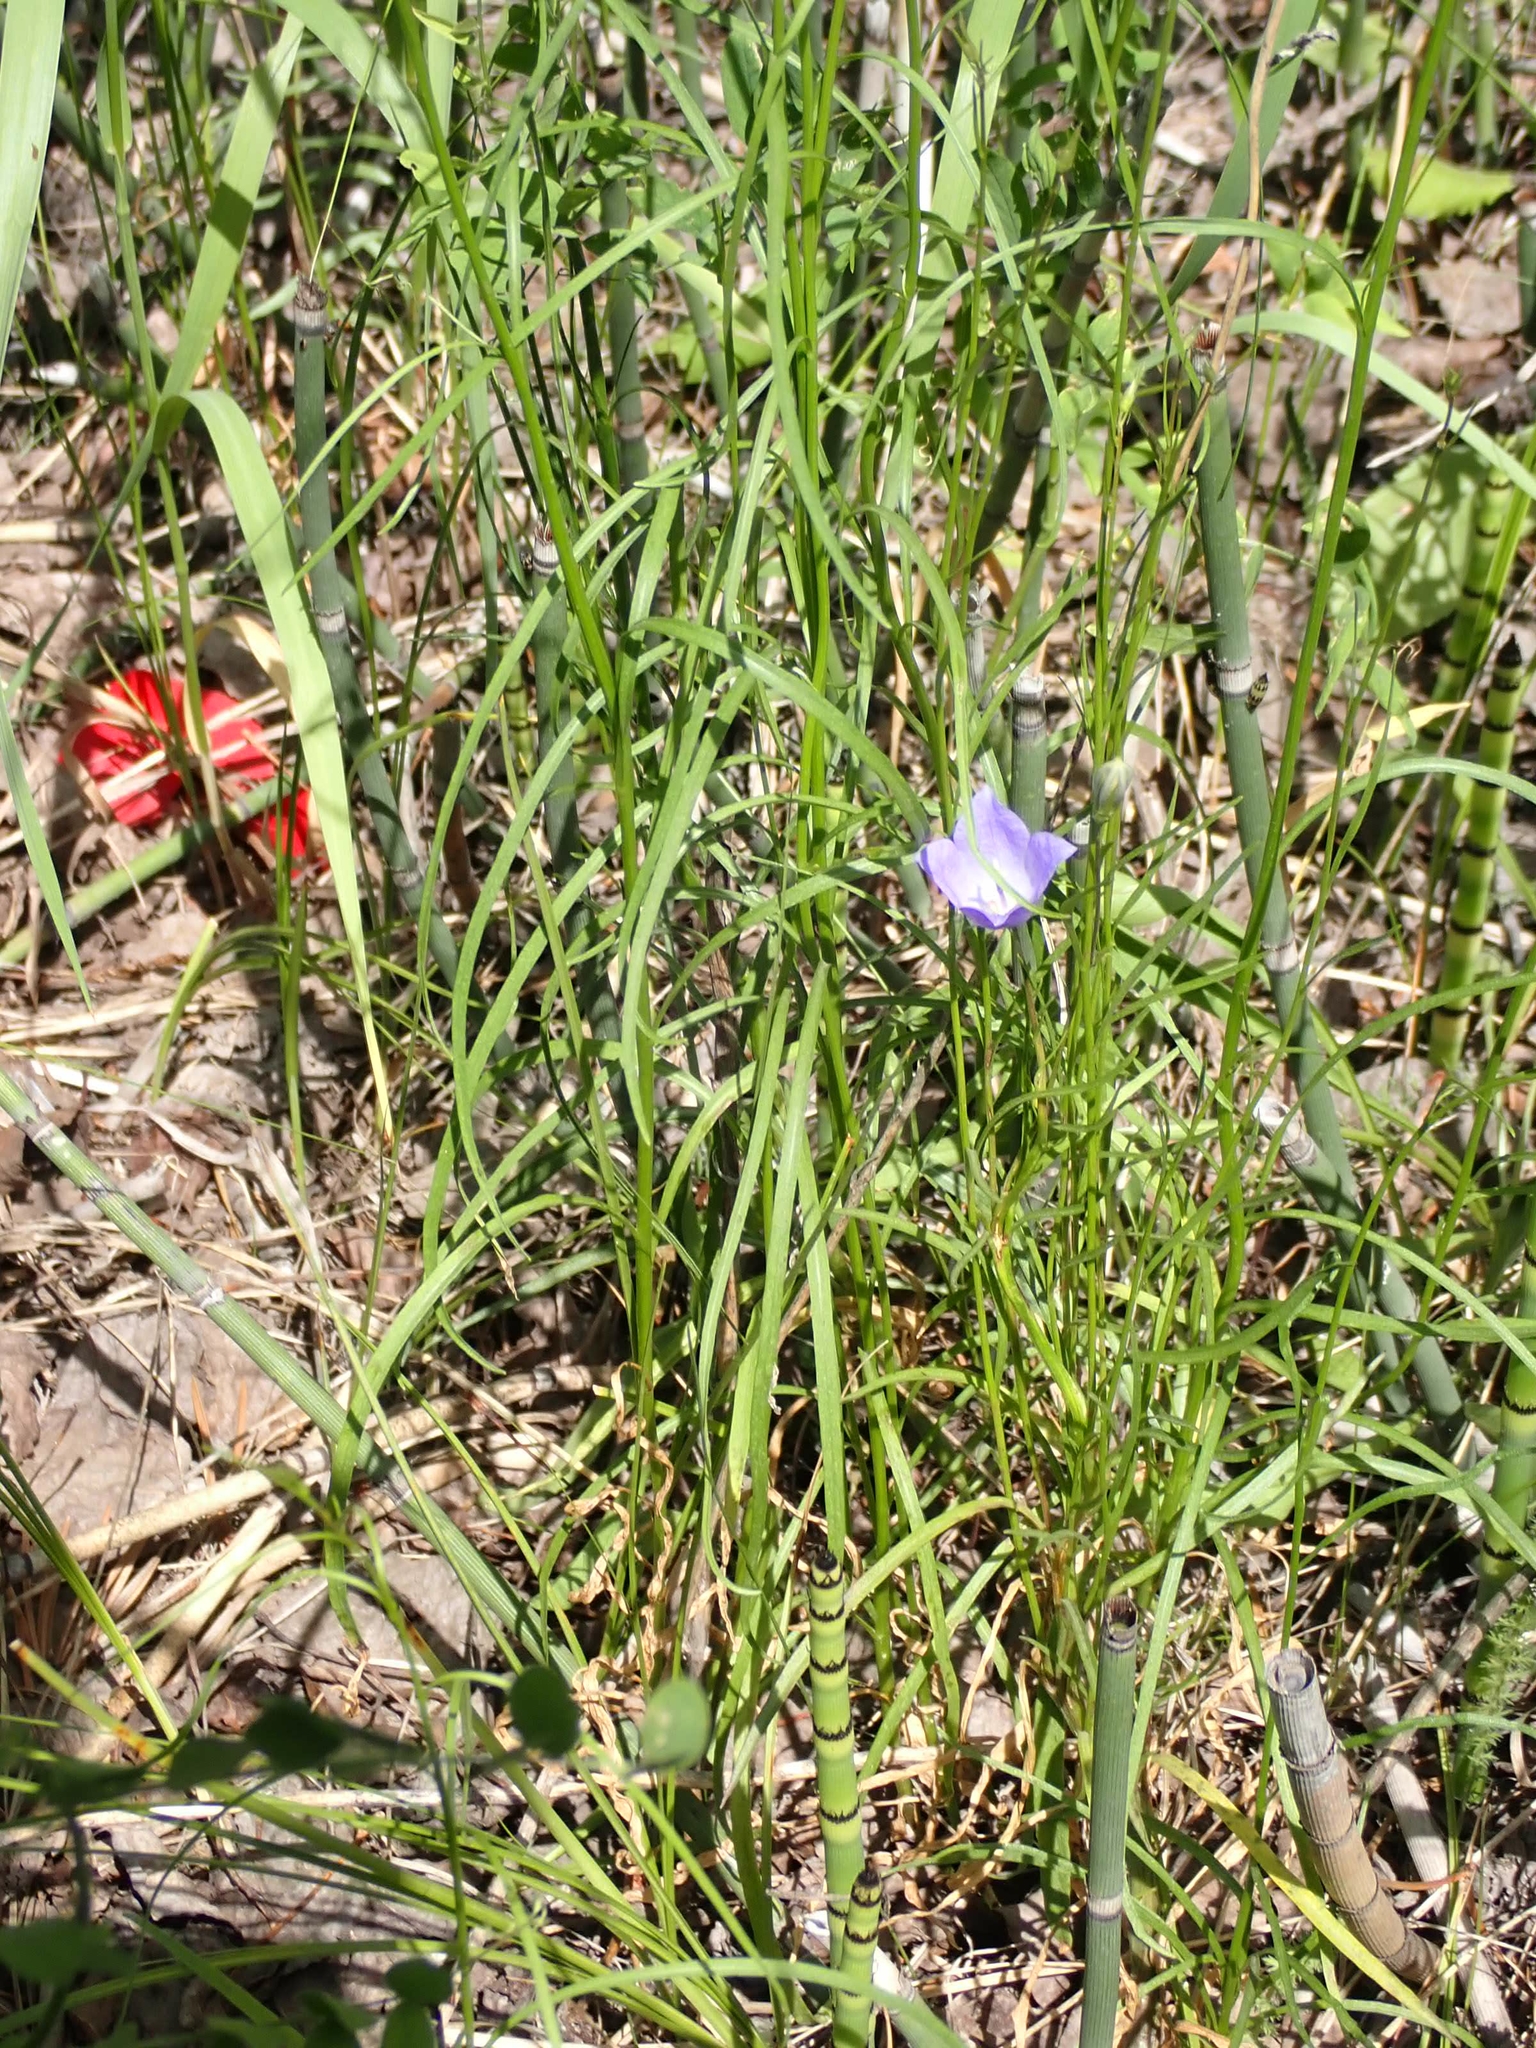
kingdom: Plantae
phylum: Tracheophyta
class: Magnoliopsida
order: Asterales
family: Campanulaceae
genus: Campanula
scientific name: Campanula petiolata
